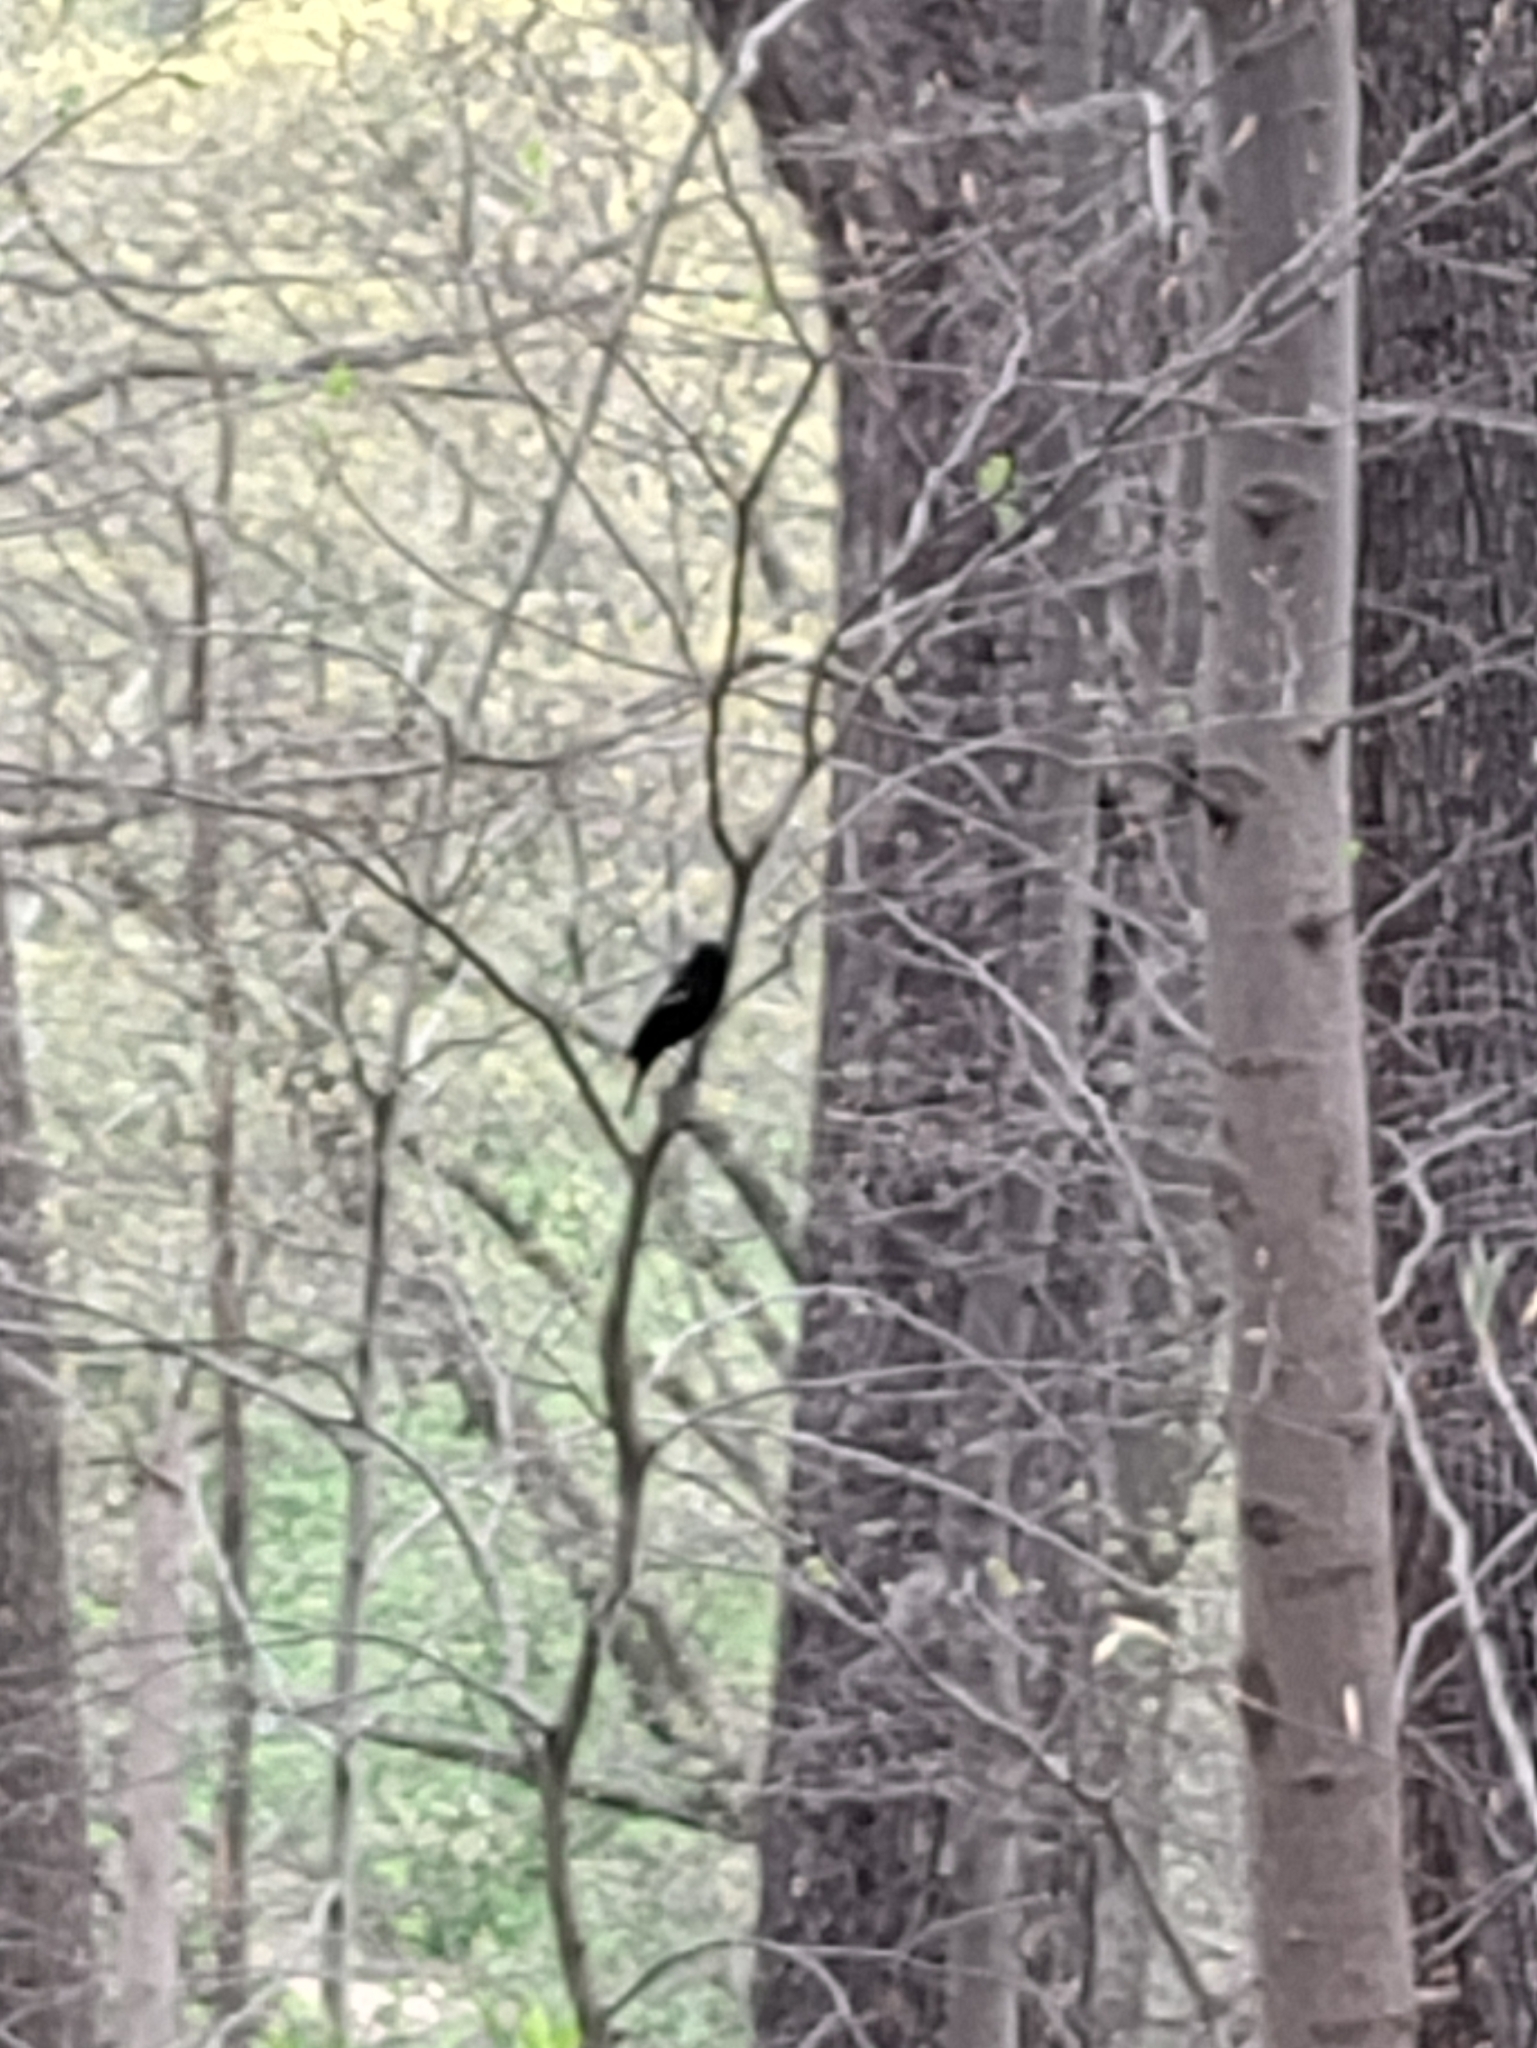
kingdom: Animalia
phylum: Chordata
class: Aves
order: Passeriformes
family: Icteridae
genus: Agelaius
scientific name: Agelaius phoeniceus
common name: Red-winged blackbird
